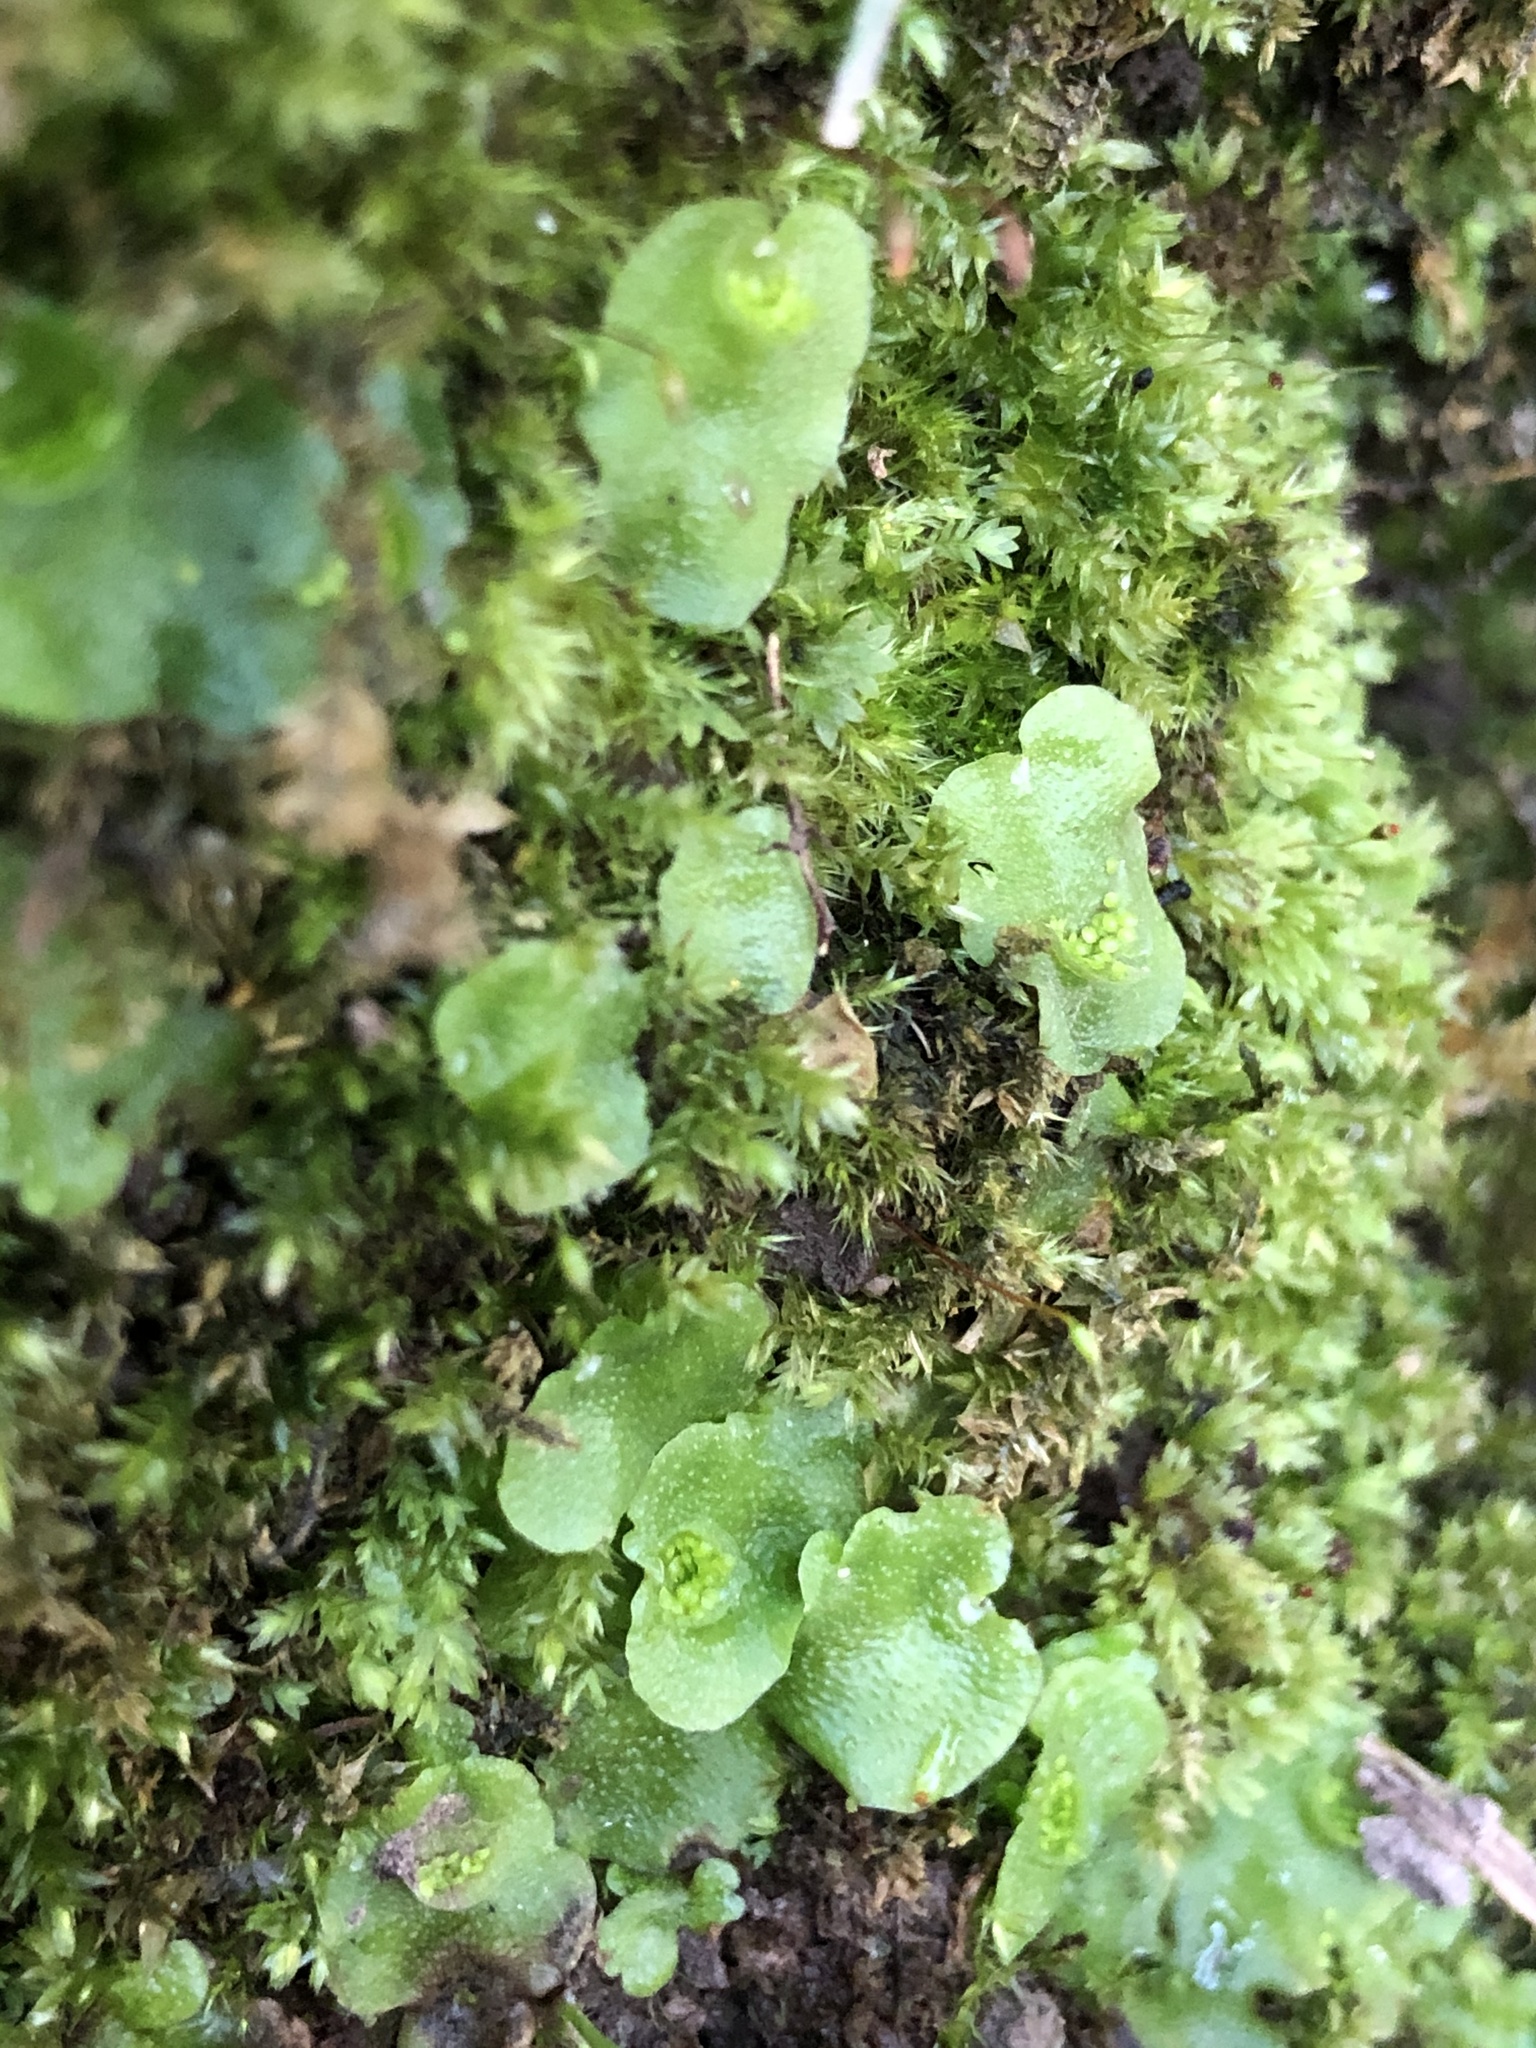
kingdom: Plantae
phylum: Marchantiophyta
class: Marchantiopsida
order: Lunulariales
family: Lunulariaceae
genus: Lunularia
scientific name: Lunularia cruciata
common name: Crescent-cup liverwort
